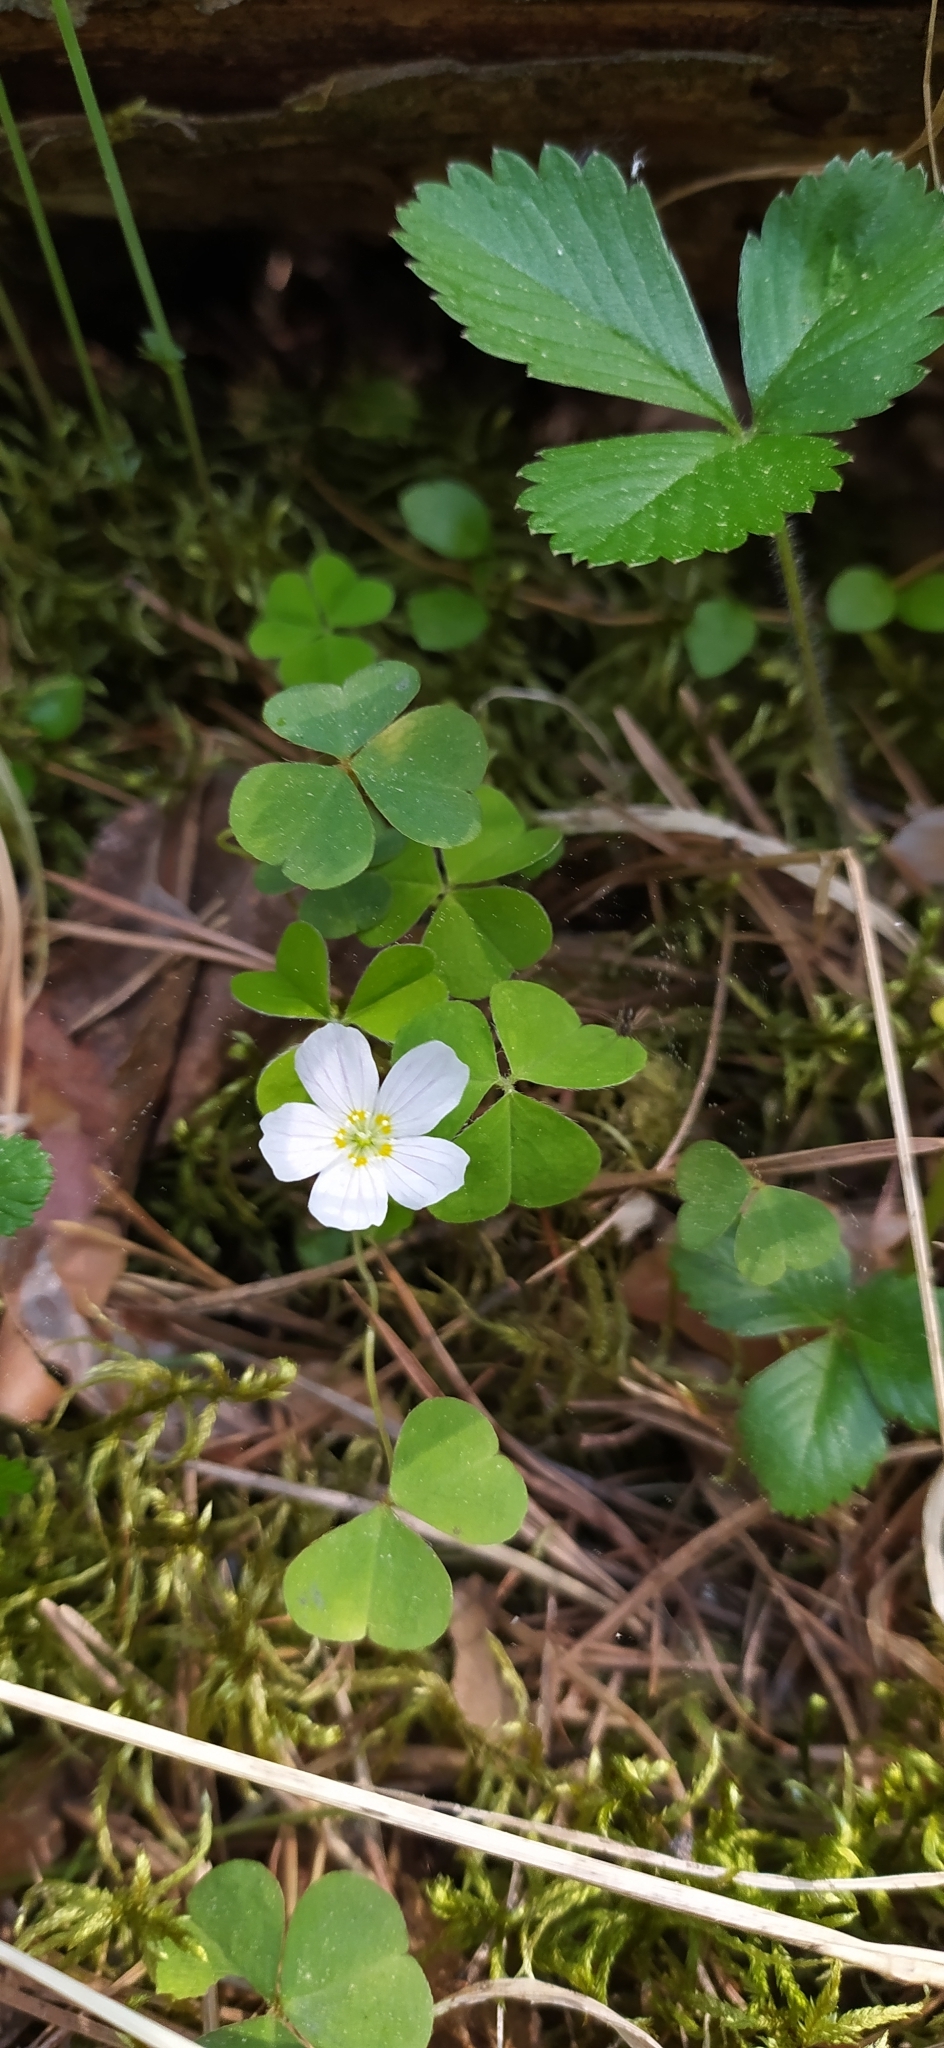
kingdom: Plantae
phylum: Tracheophyta
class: Magnoliopsida
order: Oxalidales
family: Oxalidaceae
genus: Oxalis
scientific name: Oxalis acetosella
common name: Wood-sorrel
